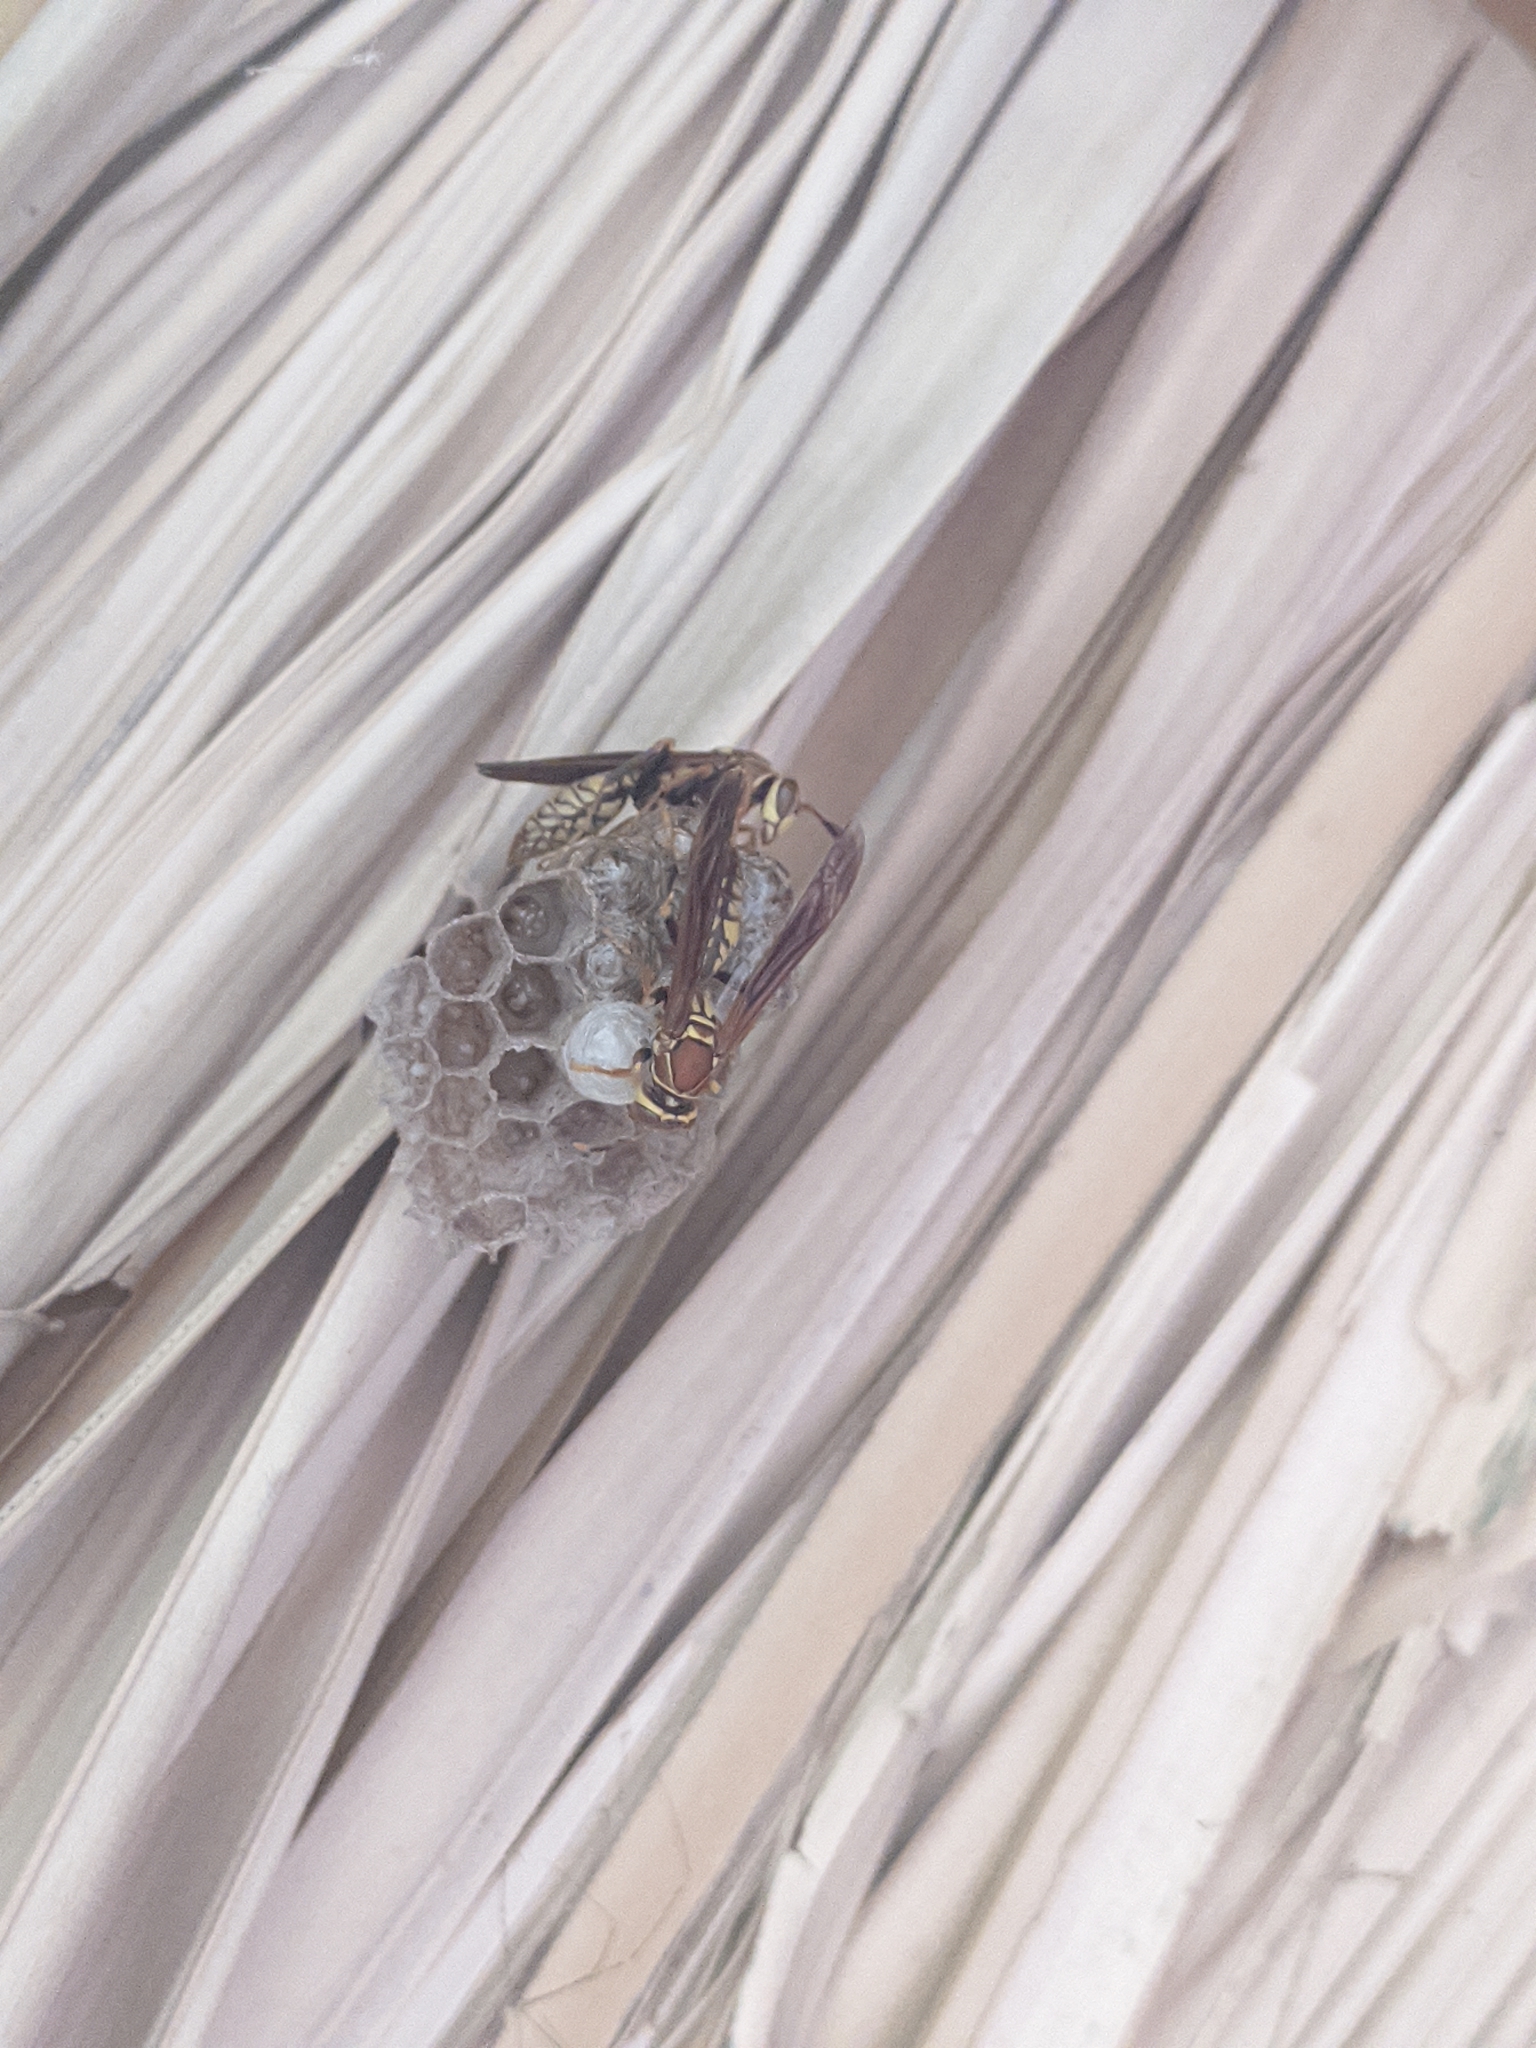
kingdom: Animalia
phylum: Arthropoda
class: Insecta
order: Hymenoptera
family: Eumenidae
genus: Polistes
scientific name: Polistes myersi
